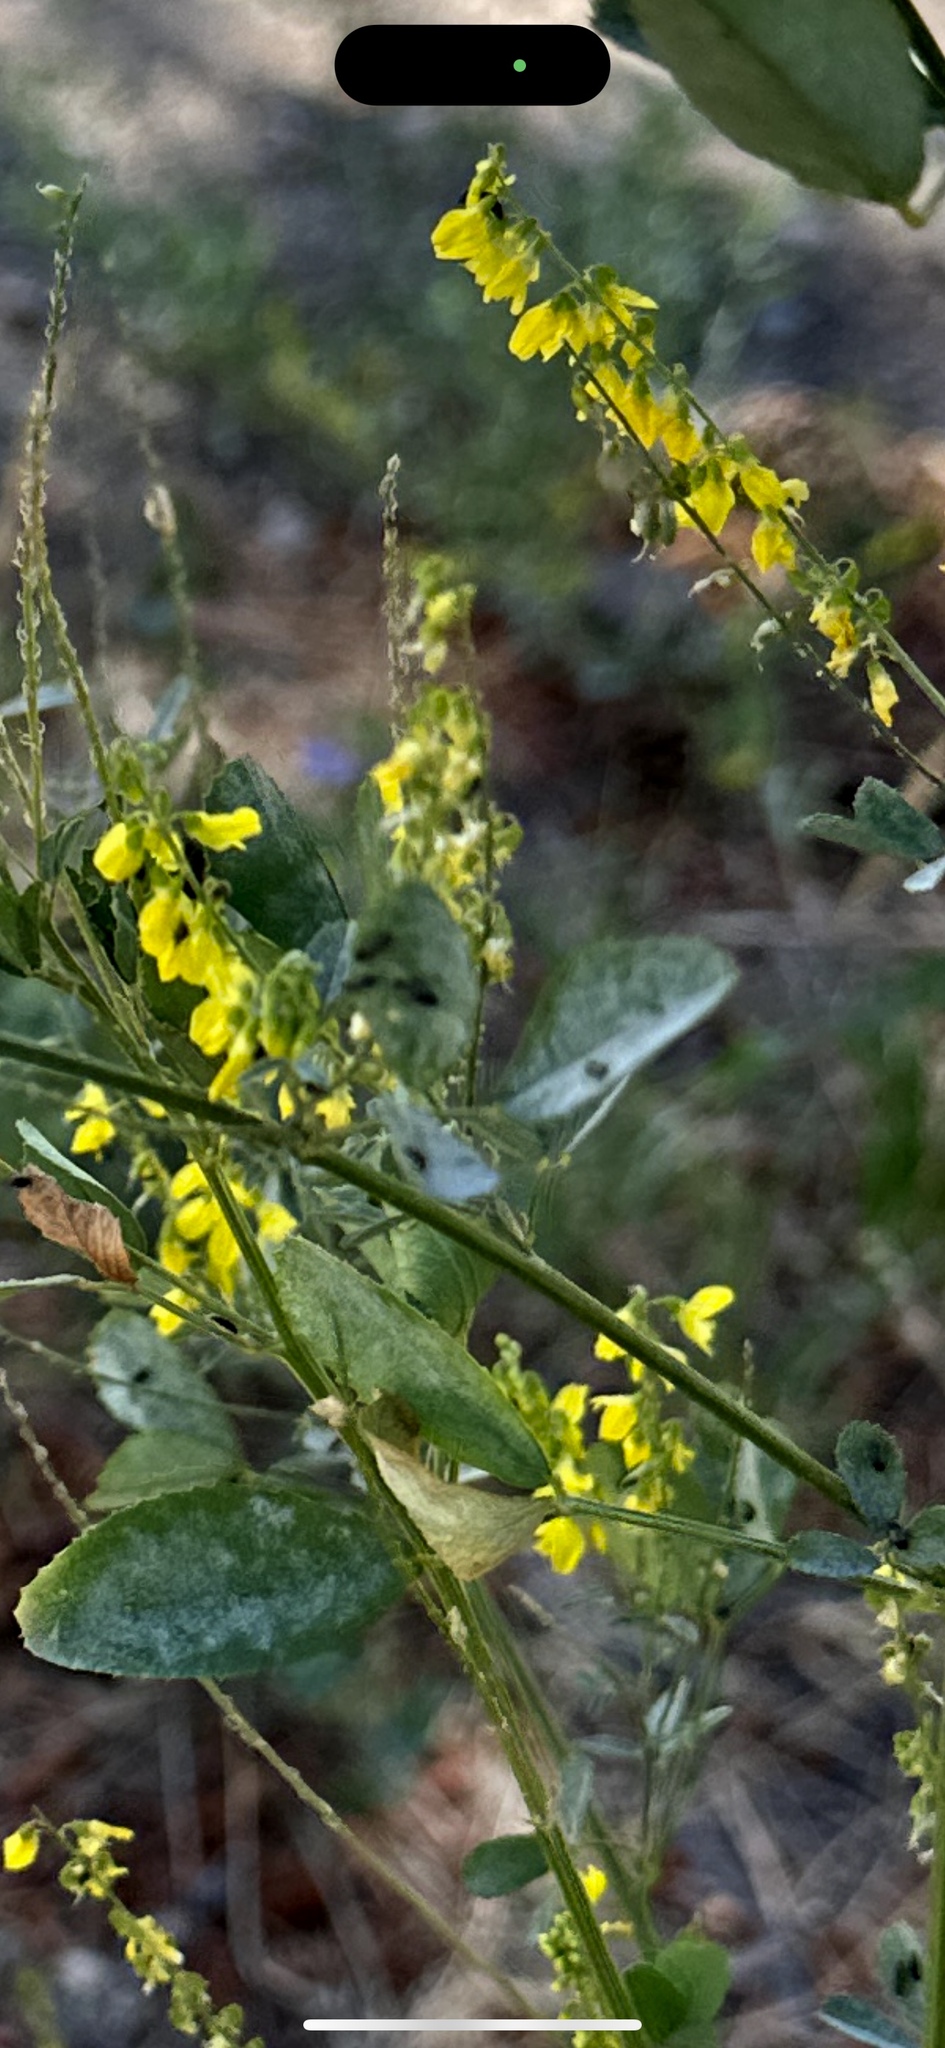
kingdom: Plantae
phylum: Tracheophyta
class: Magnoliopsida
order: Fabales
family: Fabaceae
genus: Melilotus
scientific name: Melilotus officinalis
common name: Sweetclover
